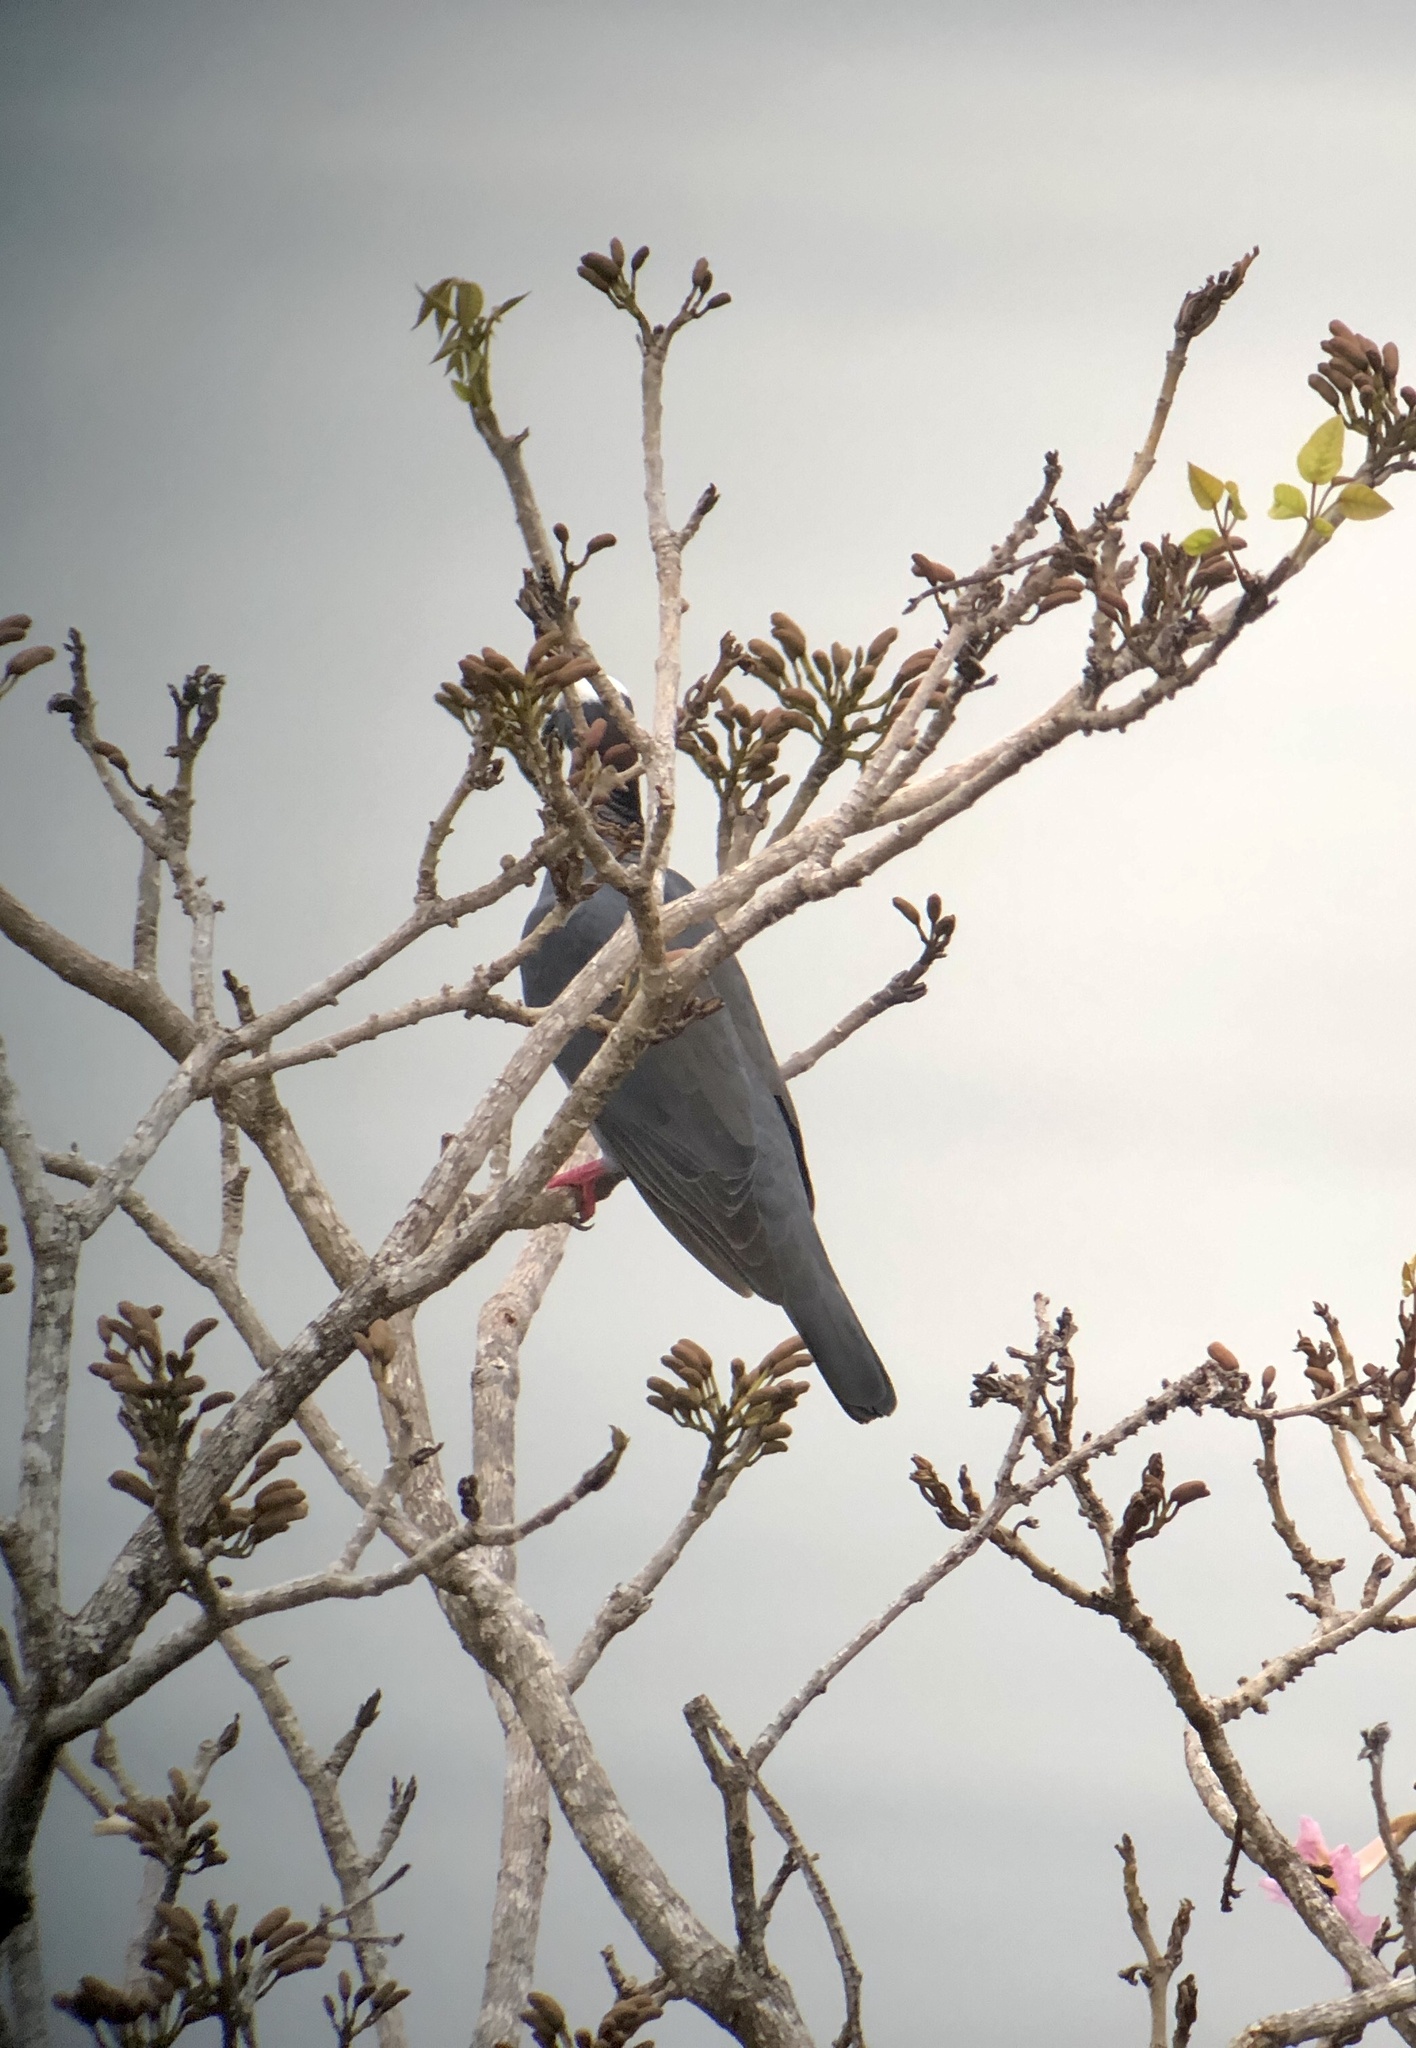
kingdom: Animalia
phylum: Chordata
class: Aves
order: Columbiformes
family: Columbidae
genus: Patagioenas
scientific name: Patagioenas leucocephala
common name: White-crowned pigeon
